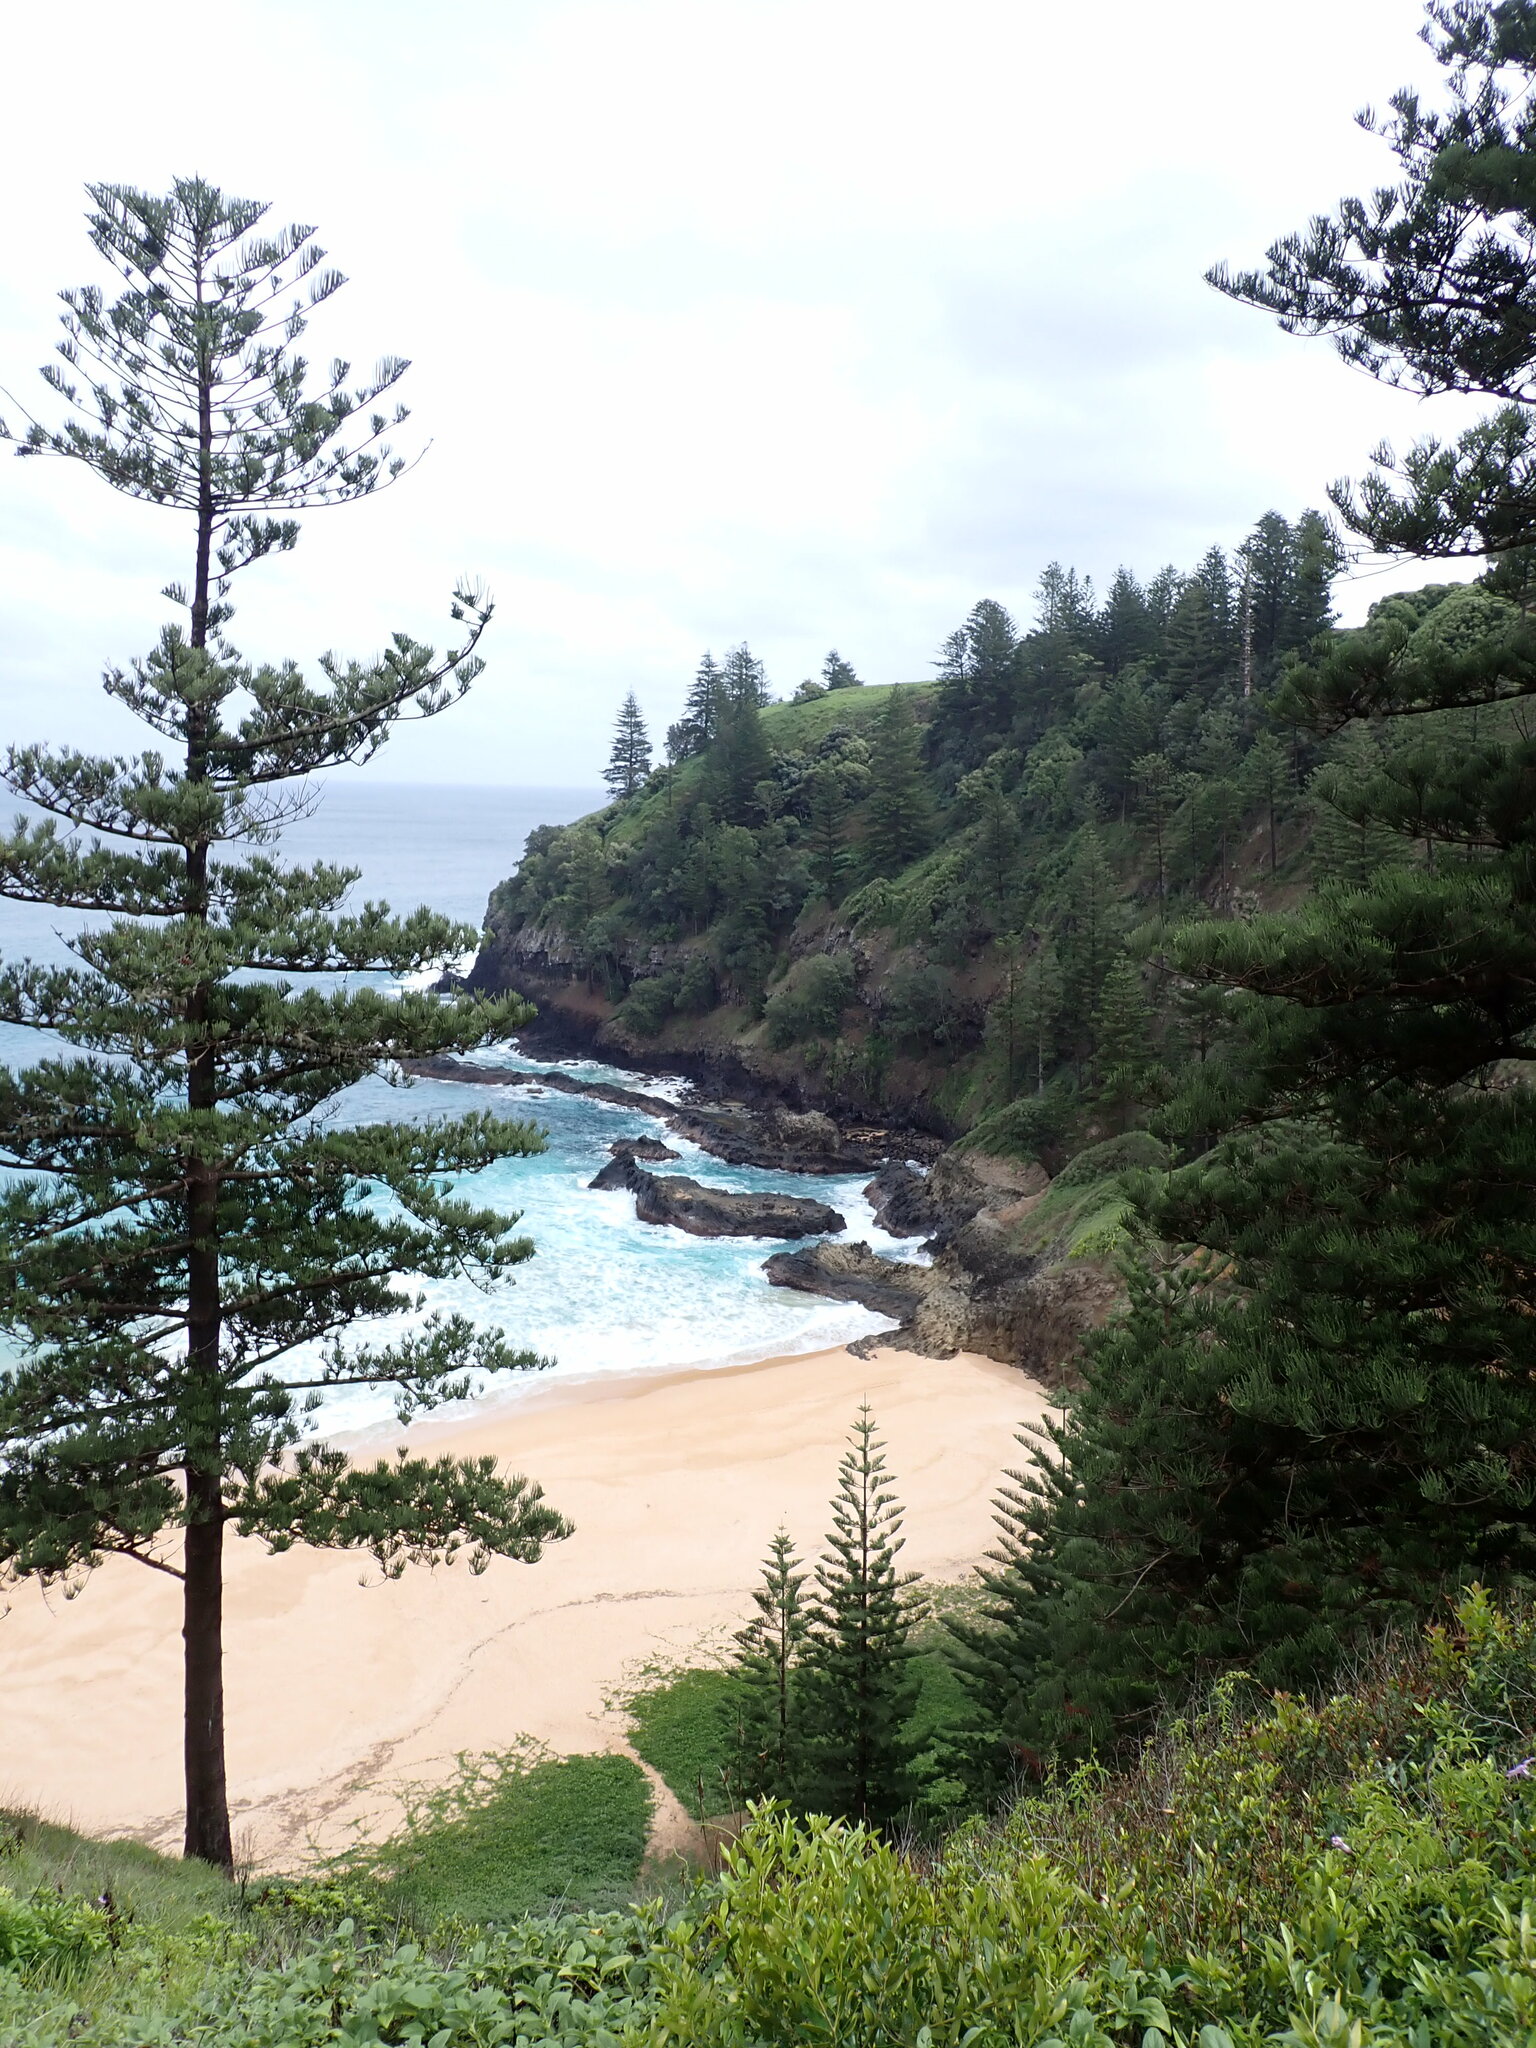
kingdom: Plantae
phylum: Tracheophyta
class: Pinopsida
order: Pinales
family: Araucariaceae
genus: Araucaria
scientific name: Araucaria heterophylla
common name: Norfolk island pine
